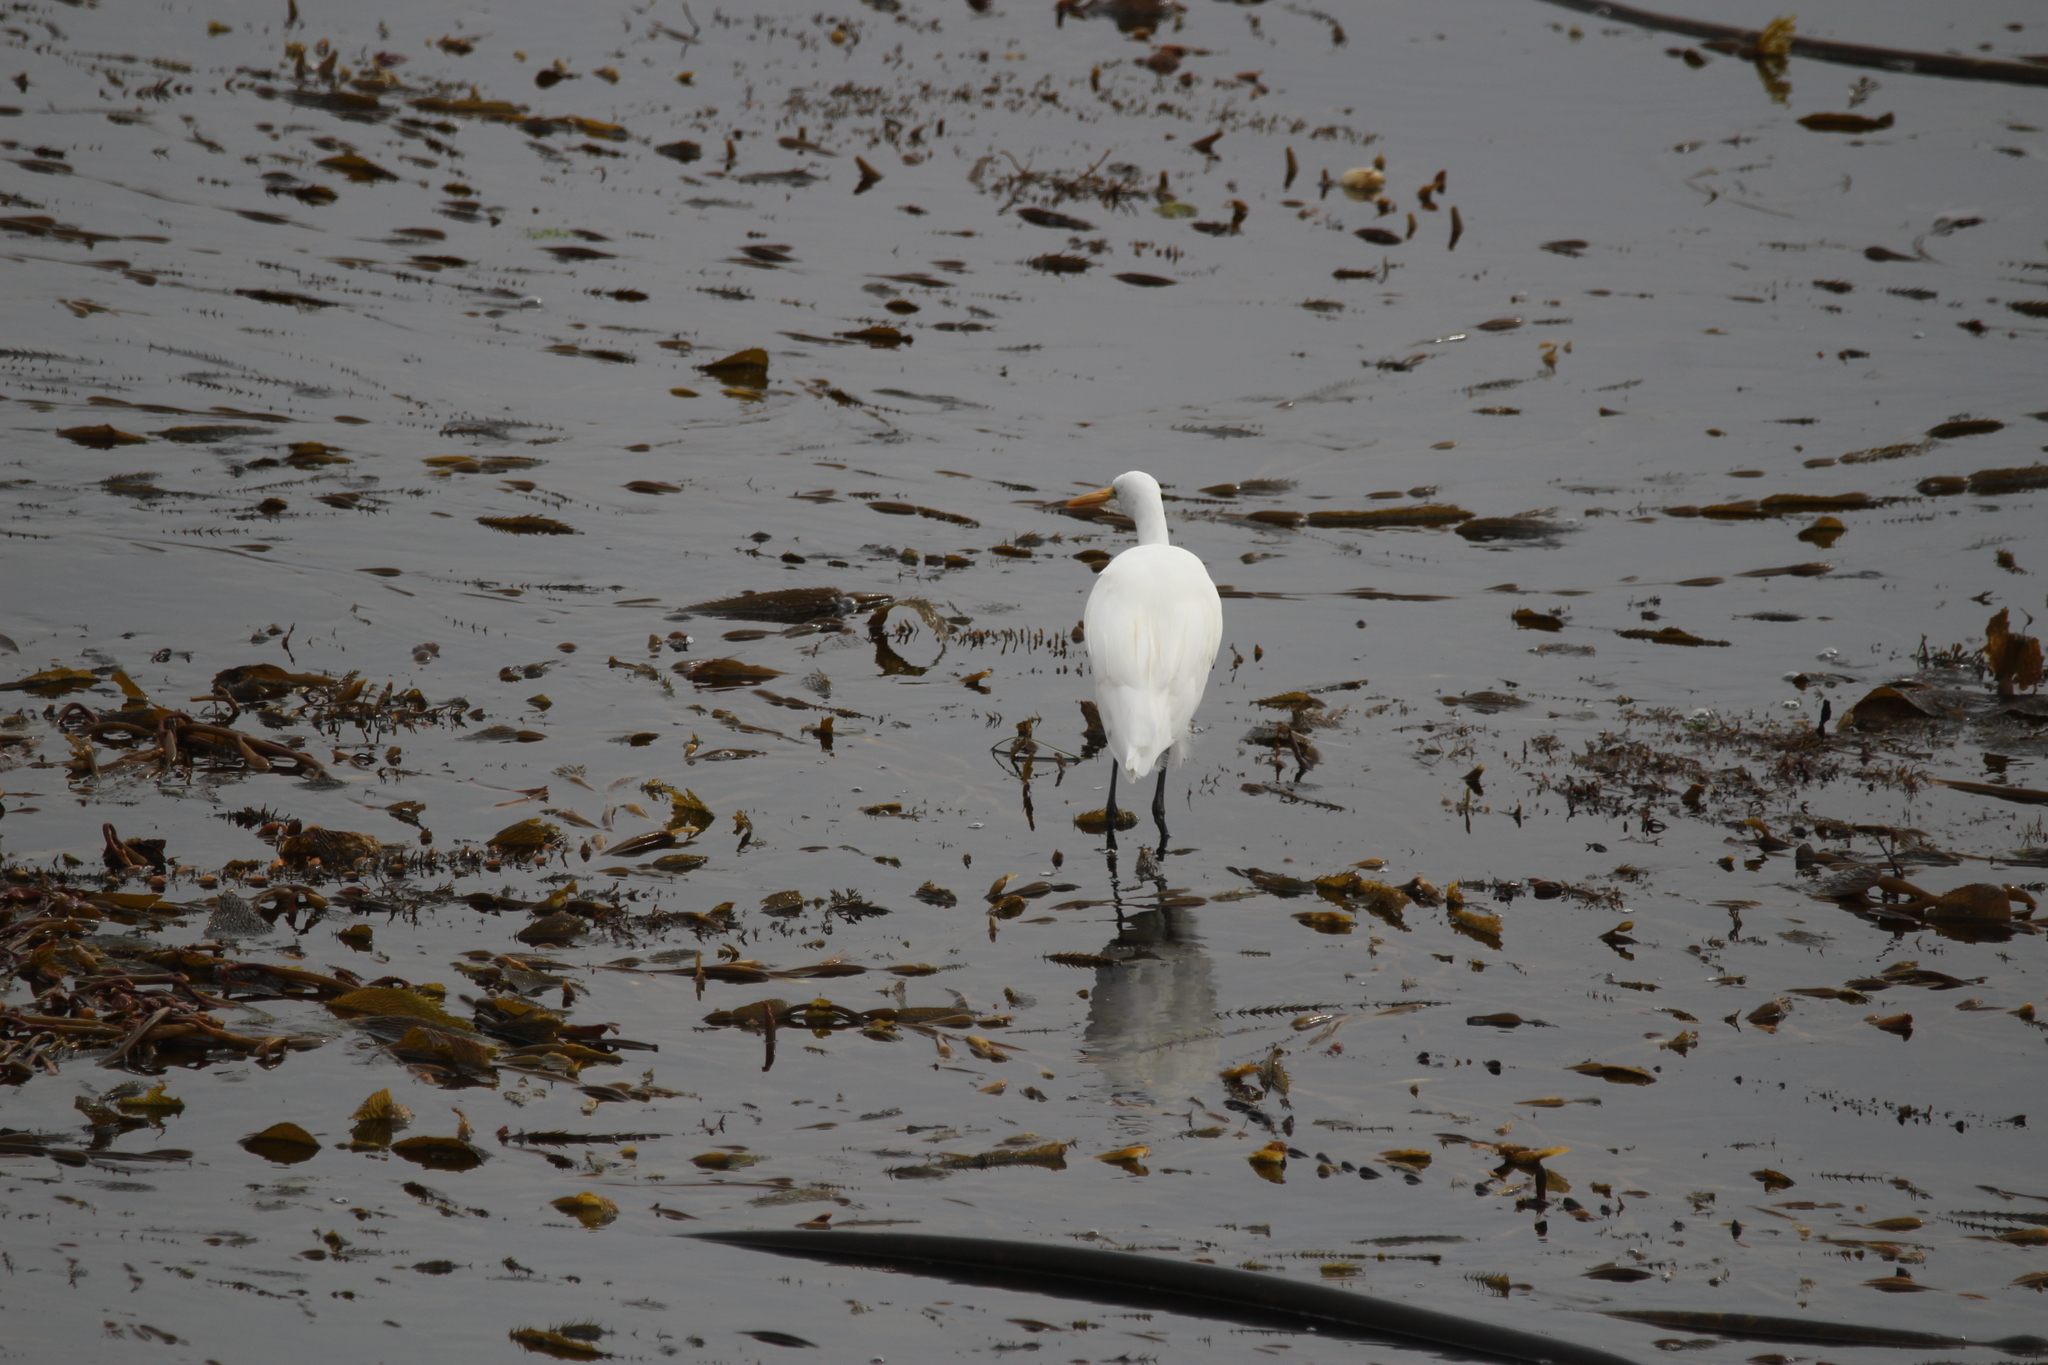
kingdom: Animalia
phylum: Chordata
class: Aves
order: Pelecaniformes
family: Ardeidae
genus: Ardea
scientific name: Ardea alba
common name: Great egret
